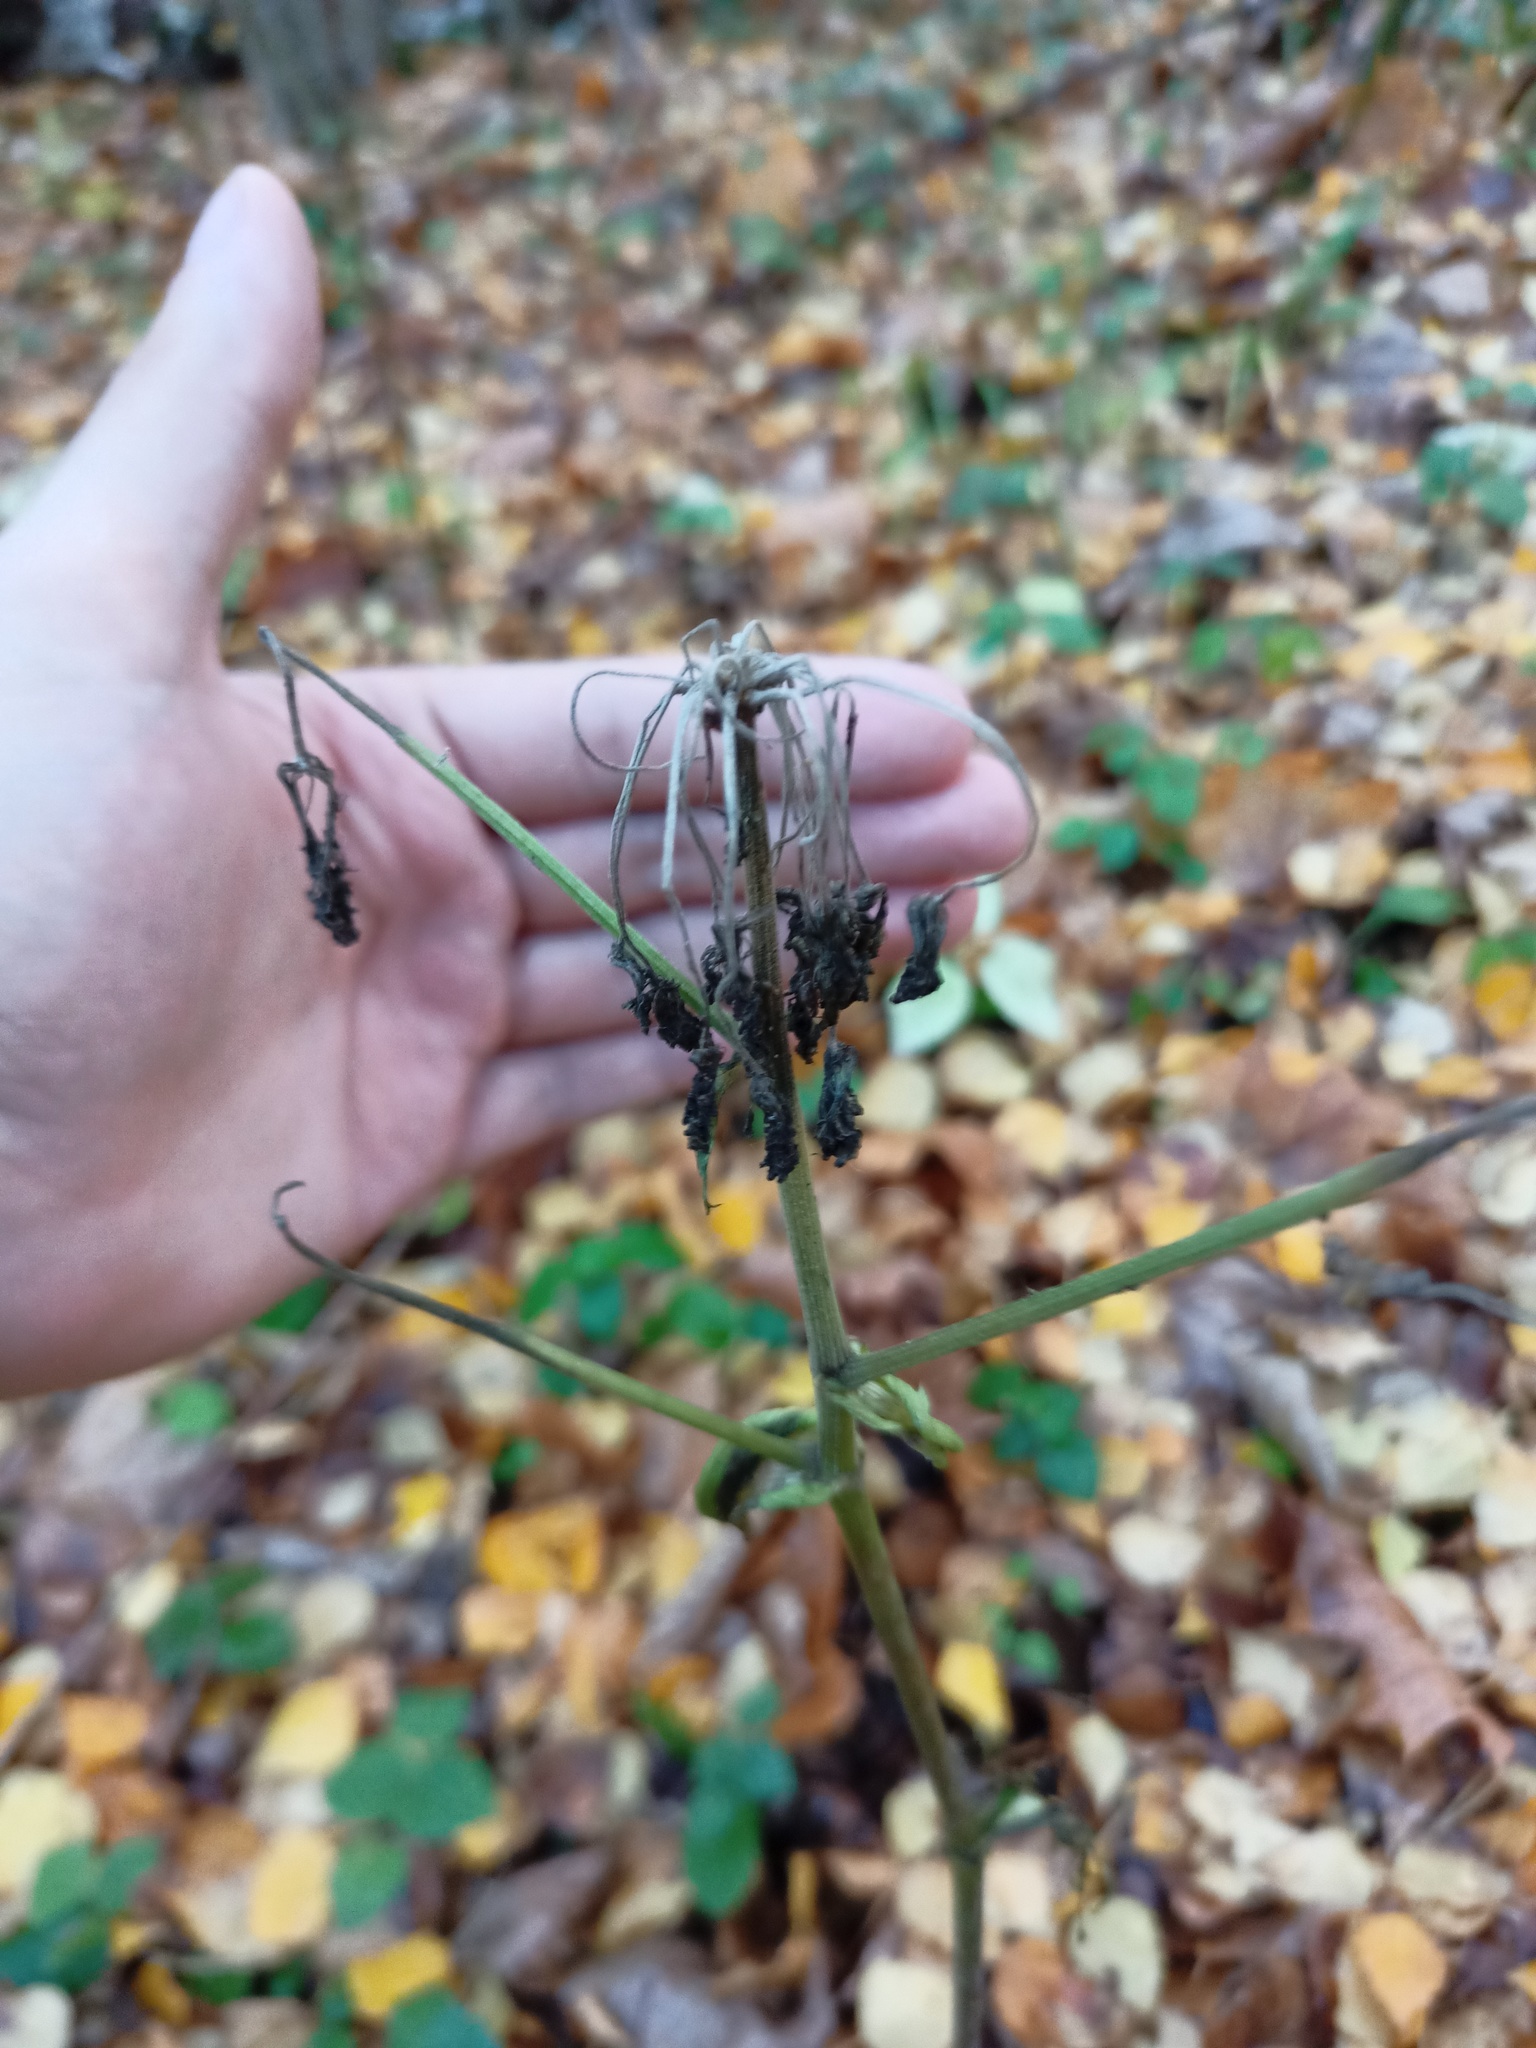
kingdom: Plantae
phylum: Tracheophyta
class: Magnoliopsida
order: Apiales
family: Apiaceae
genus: Angelica
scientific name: Angelica sylvestris
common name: Wild angelica
